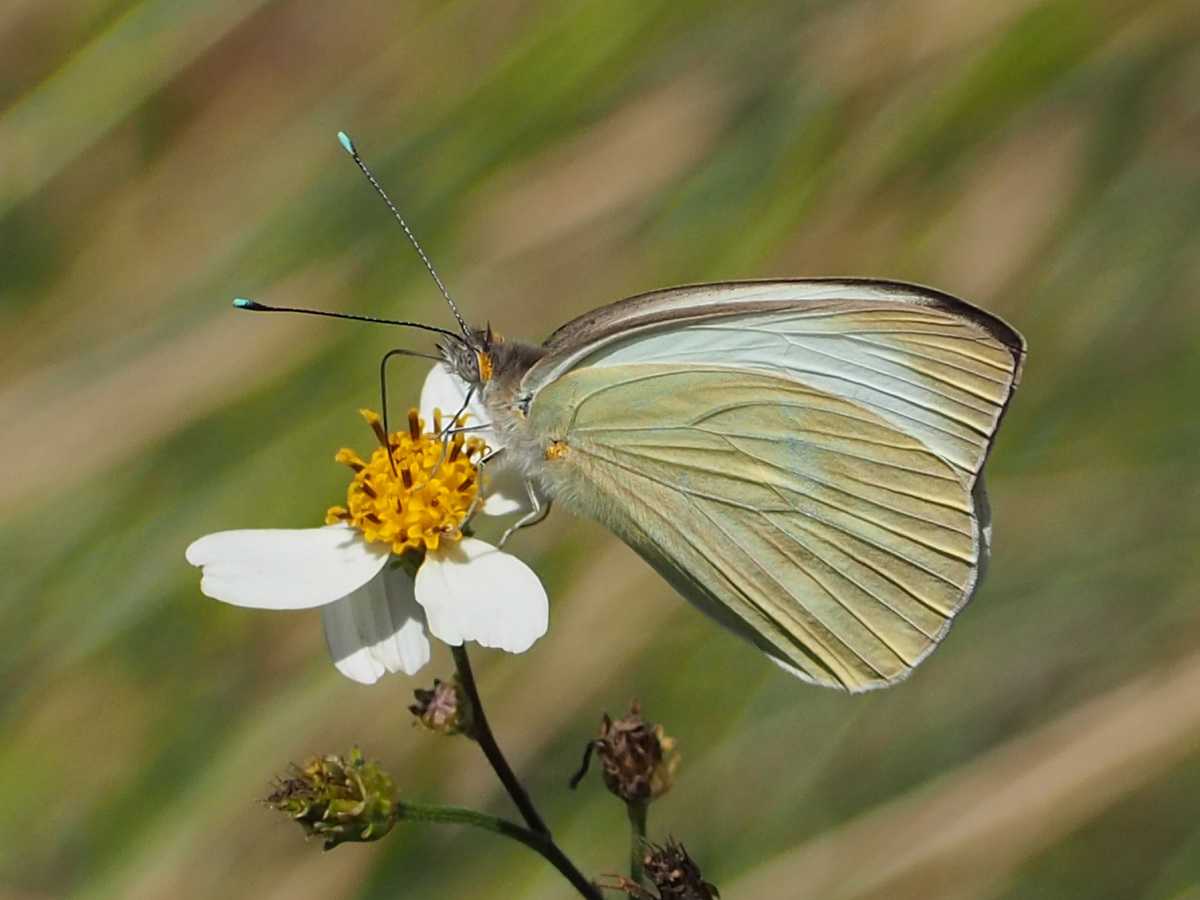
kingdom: Animalia
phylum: Arthropoda
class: Insecta
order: Lepidoptera
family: Pieridae
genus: Ascia
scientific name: Ascia monuste
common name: Great southern white
